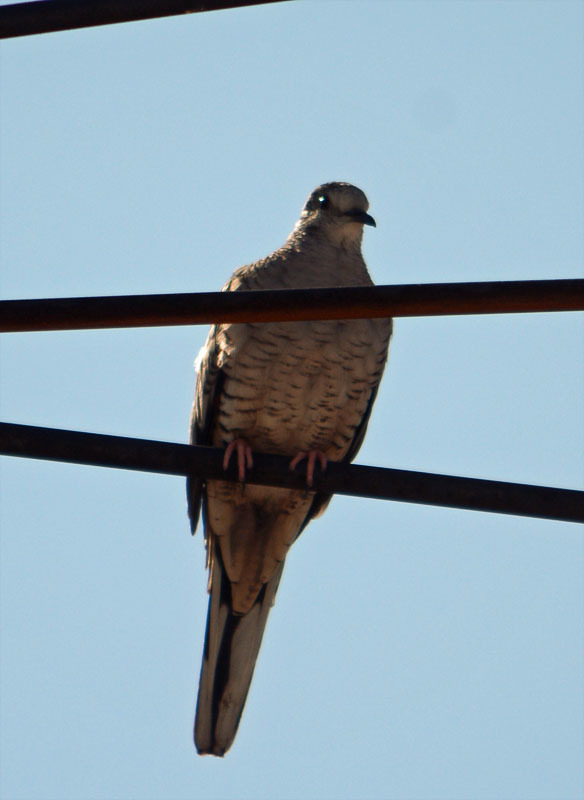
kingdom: Animalia
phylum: Chordata
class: Aves
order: Columbiformes
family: Columbidae
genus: Columbina
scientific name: Columbina inca
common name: Inca dove
